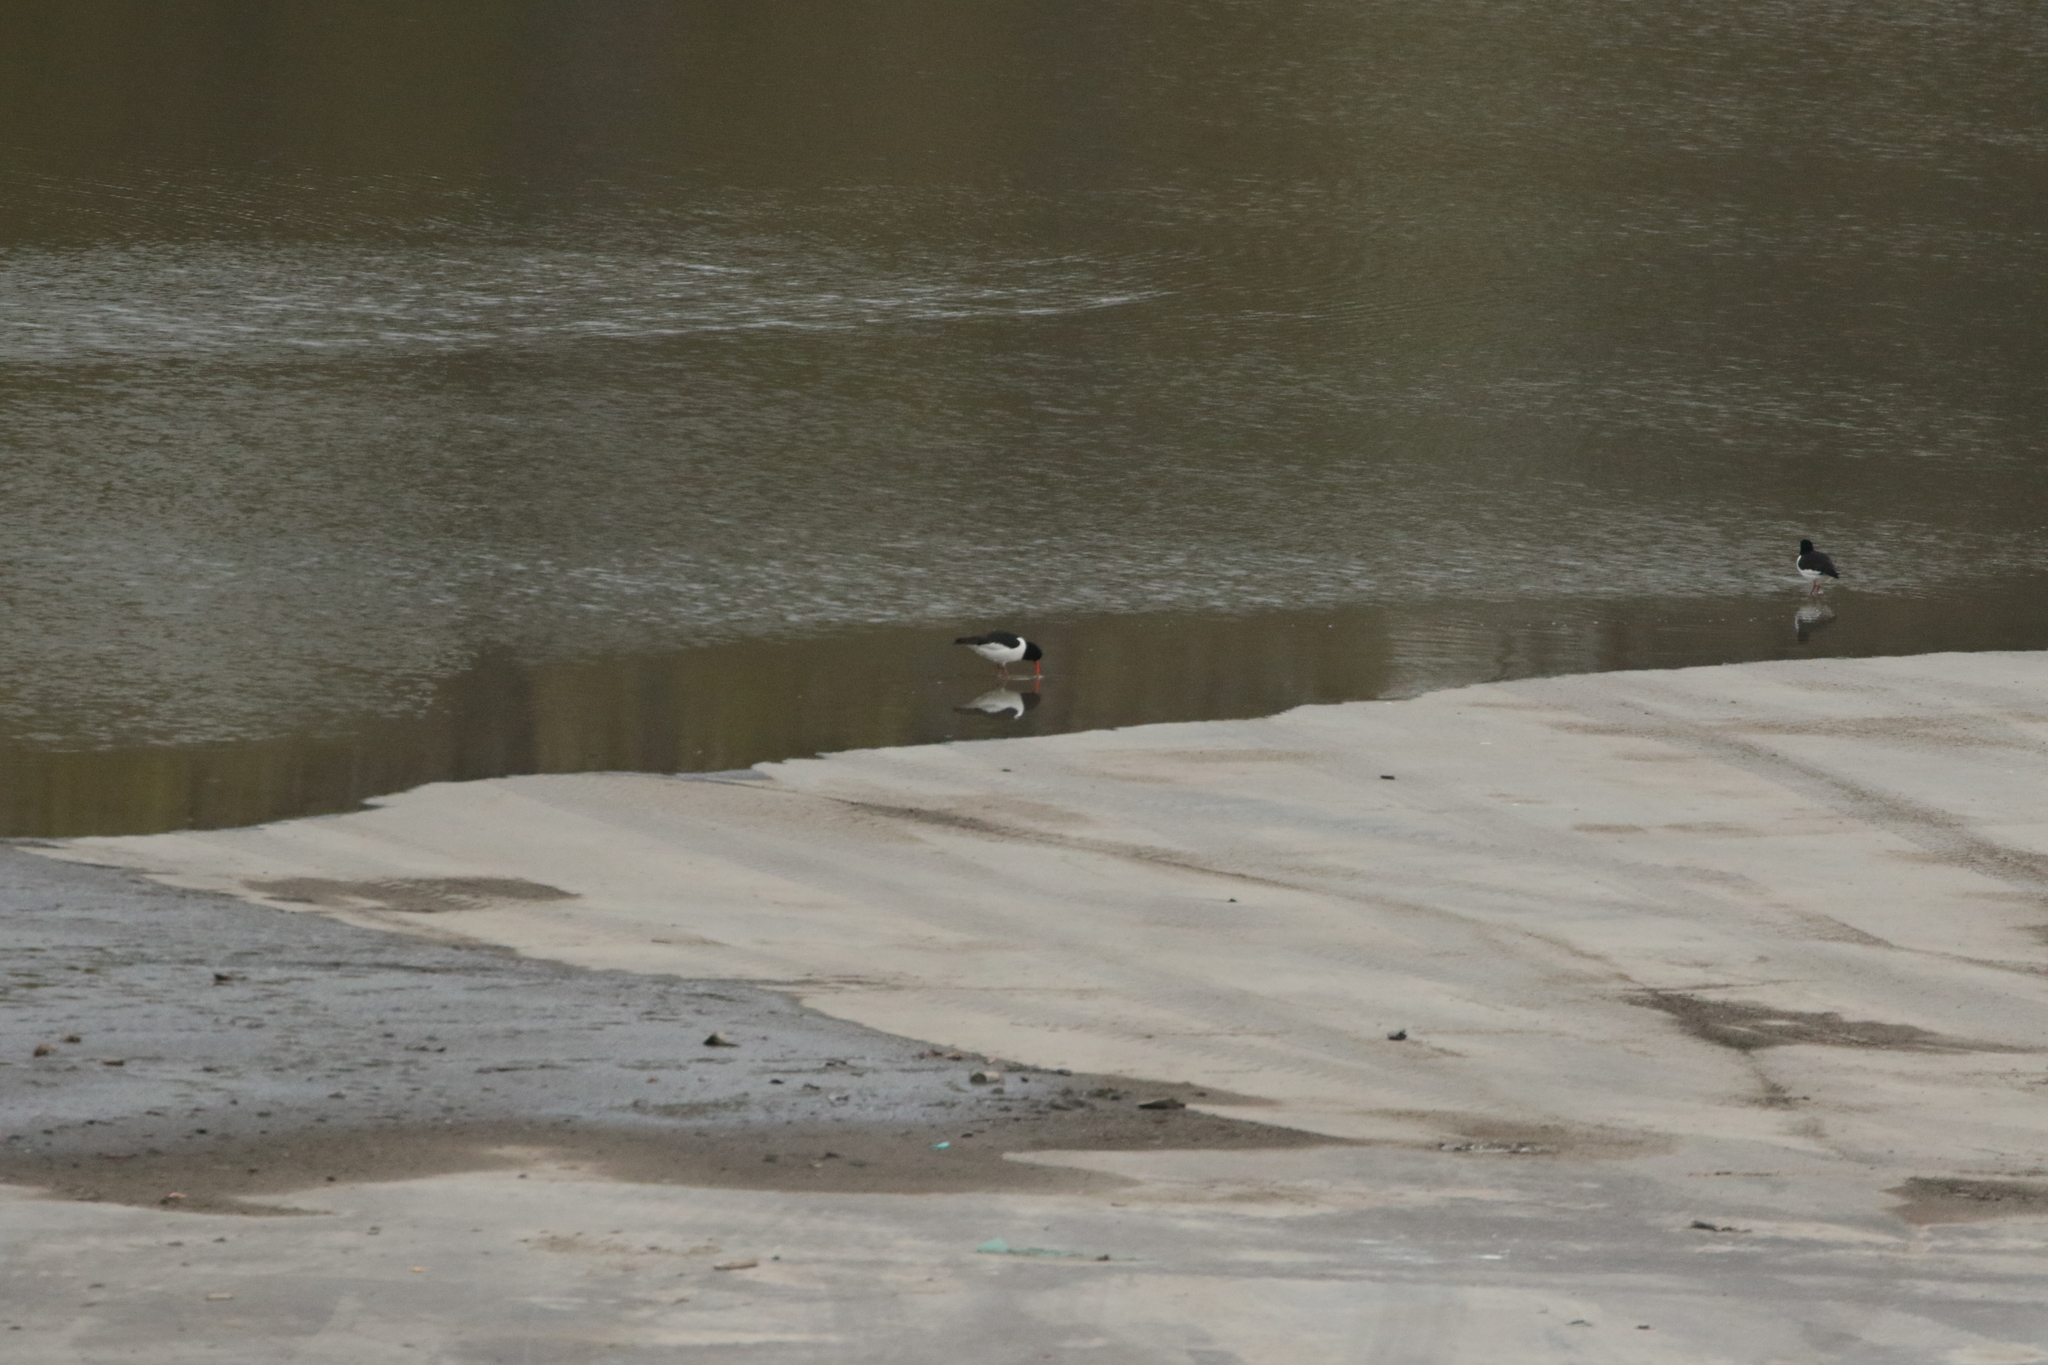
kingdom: Animalia
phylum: Chordata
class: Aves
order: Charadriiformes
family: Haematopodidae
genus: Haematopus
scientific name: Haematopus ostralegus
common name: Eurasian oystercatcher
